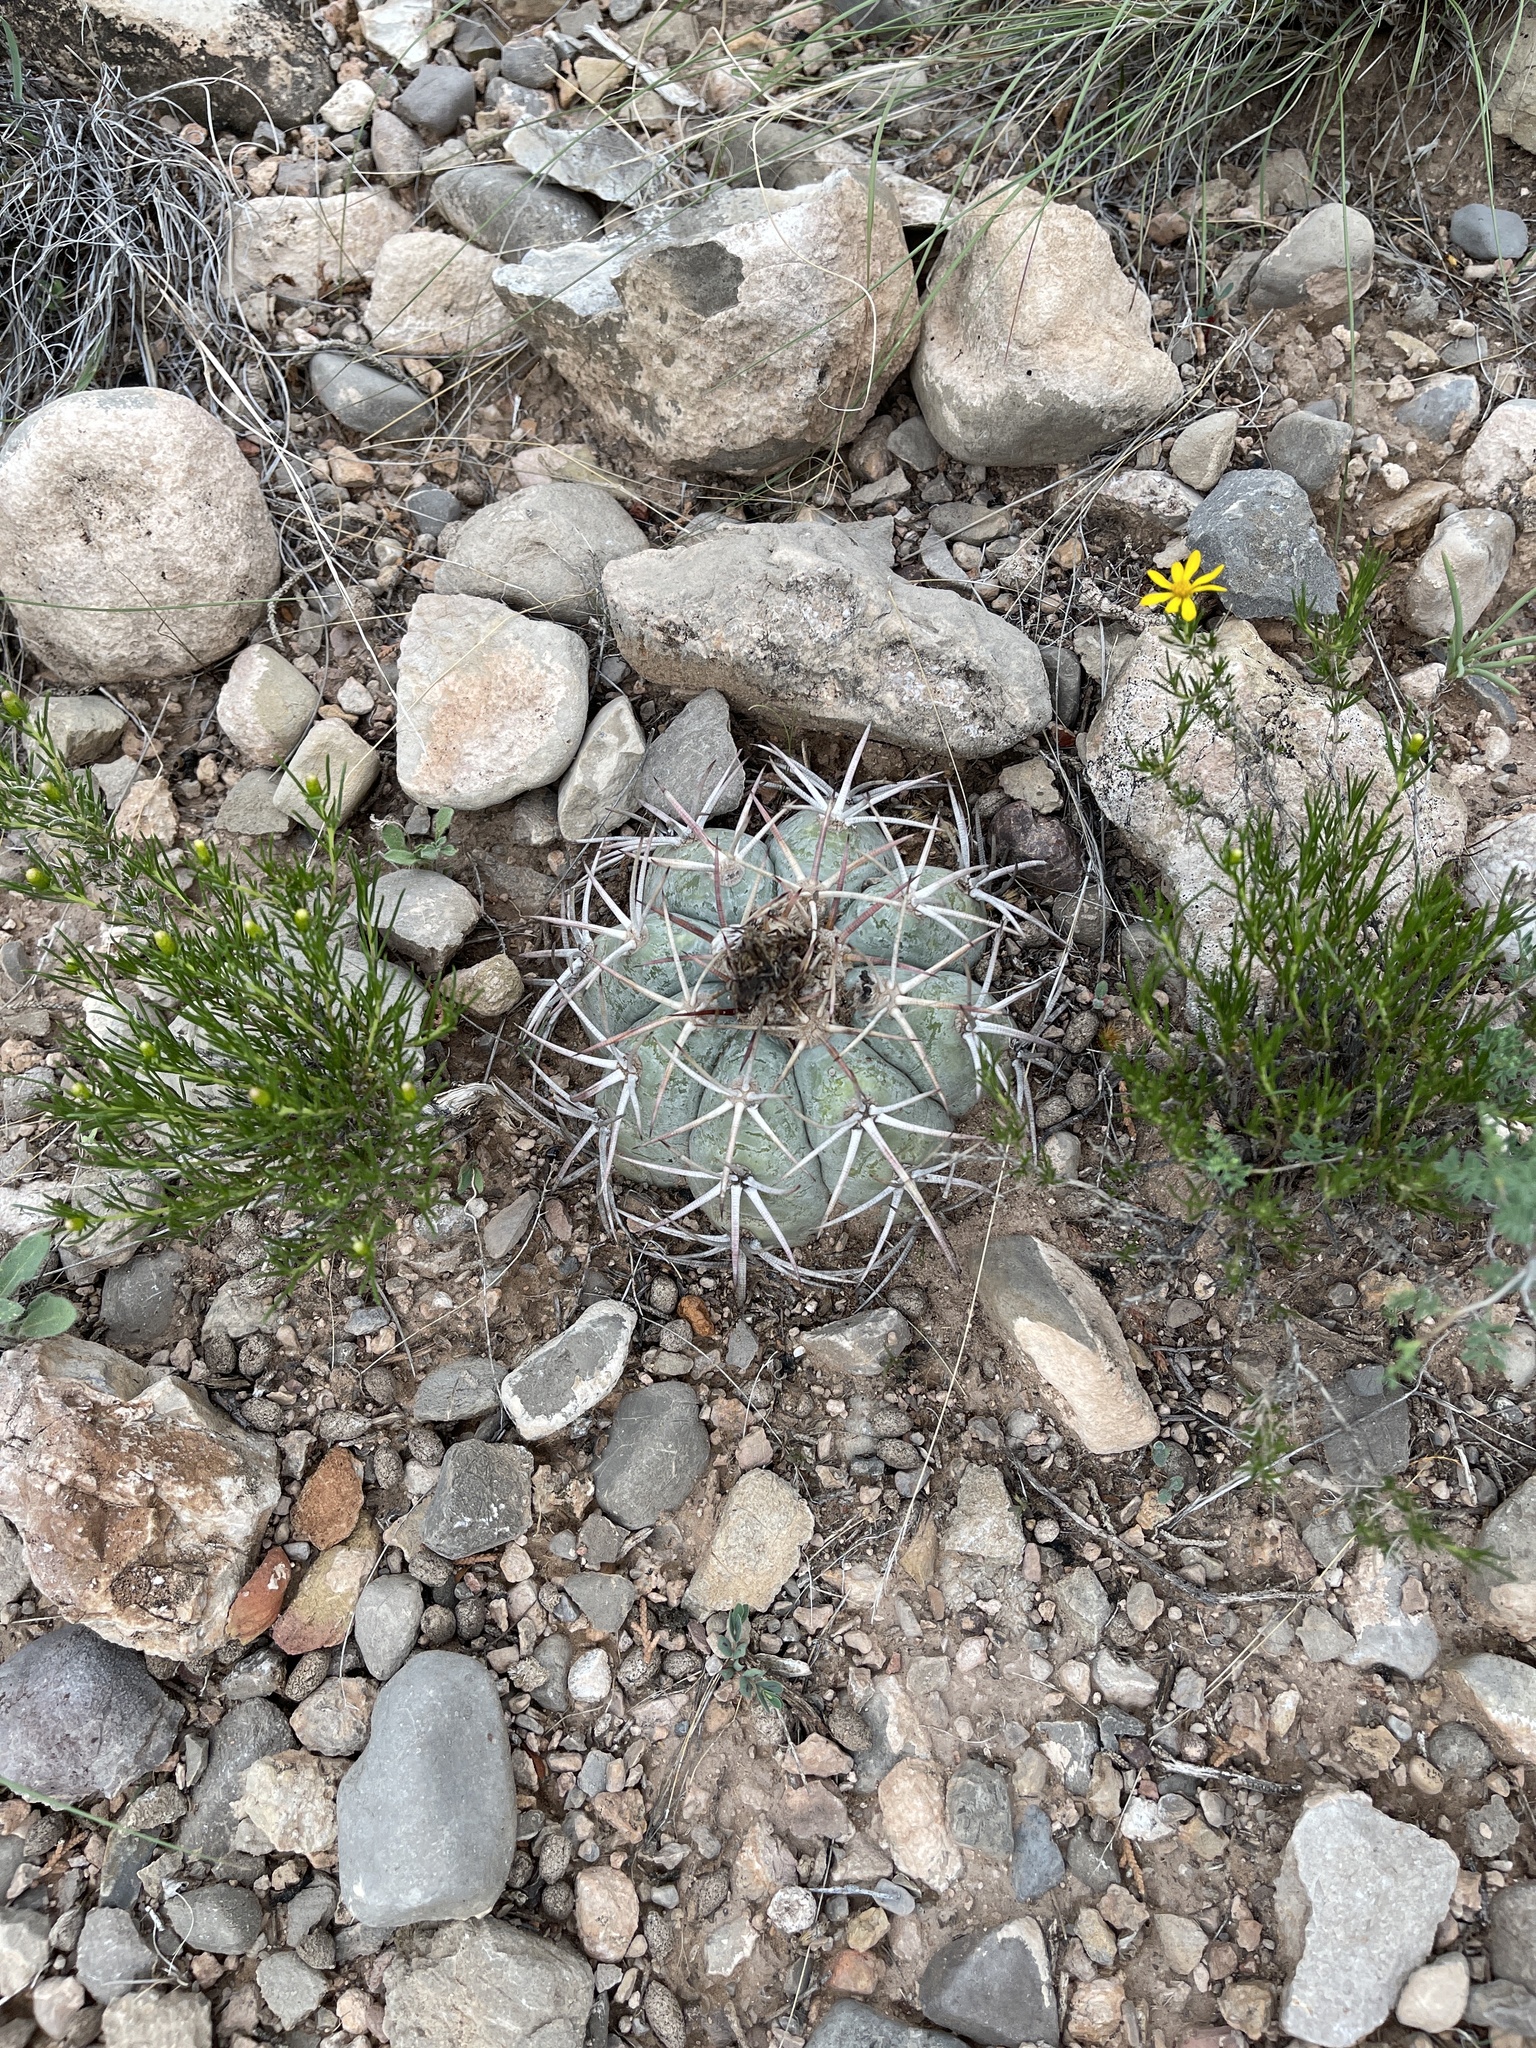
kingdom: Plantae
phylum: Tracheophyta
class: Magnoliopsida
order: Caryophyllales
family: Cactaceae
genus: Echinocactus
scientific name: Echinocactus horizonthalonius
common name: Devilshead
